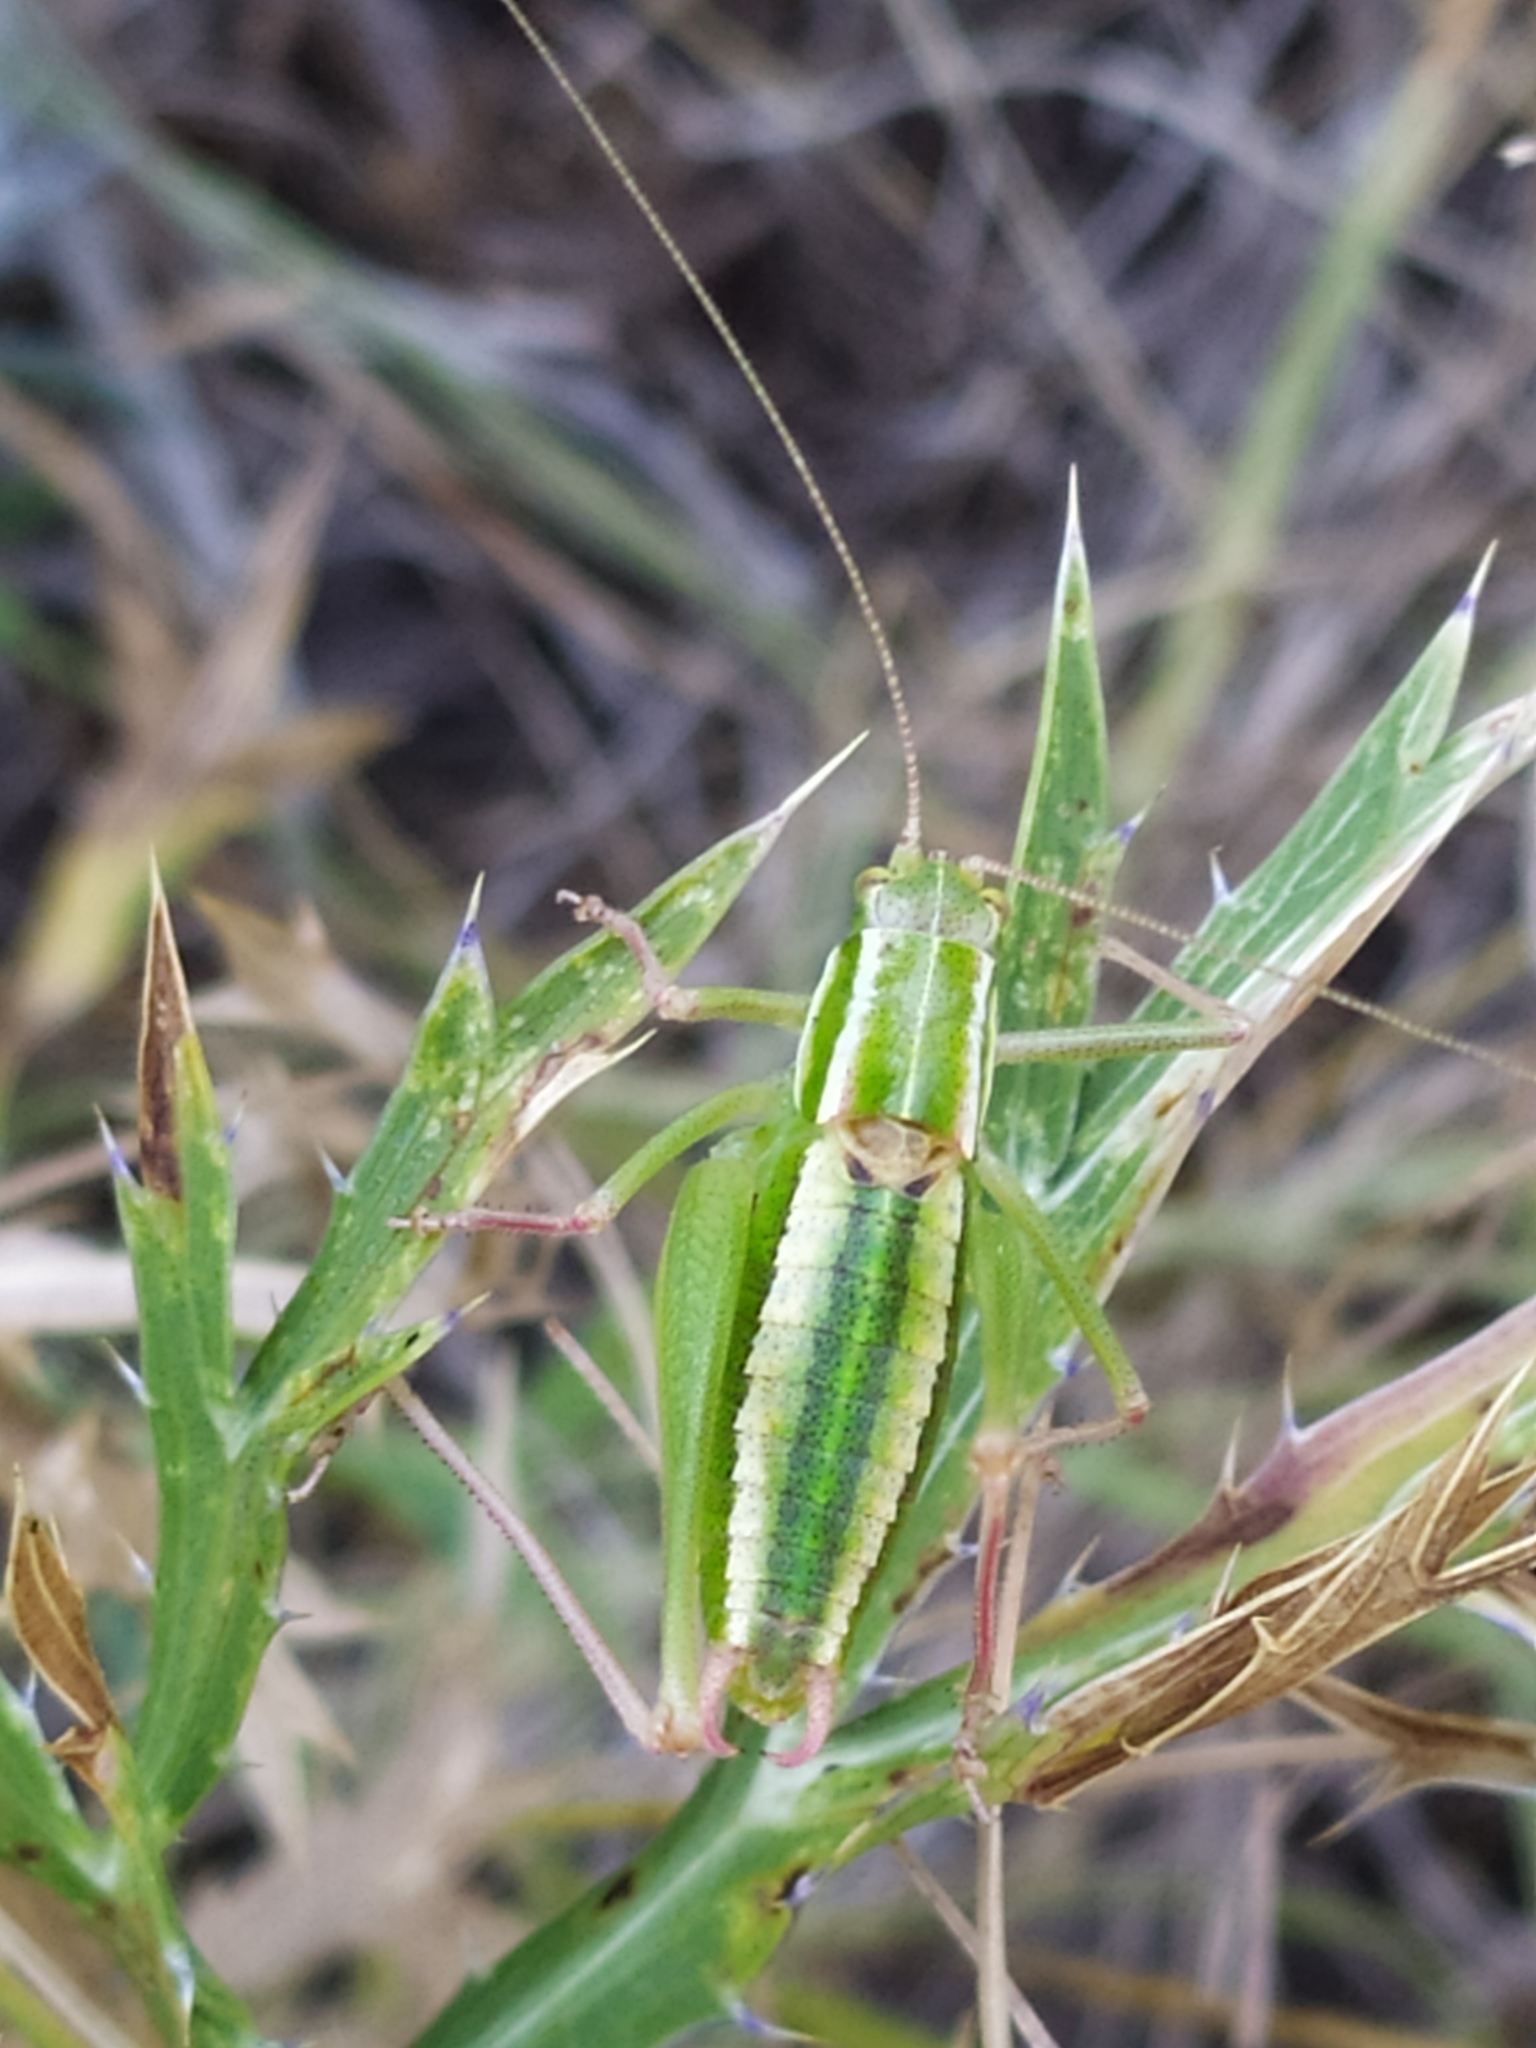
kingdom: Animalia
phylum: Arthropoda
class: Insecta
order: Orthoptera
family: Tettigoniidae
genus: Poecilimon
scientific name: Poecilimon elegans
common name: Elegant bright bush-cricket
